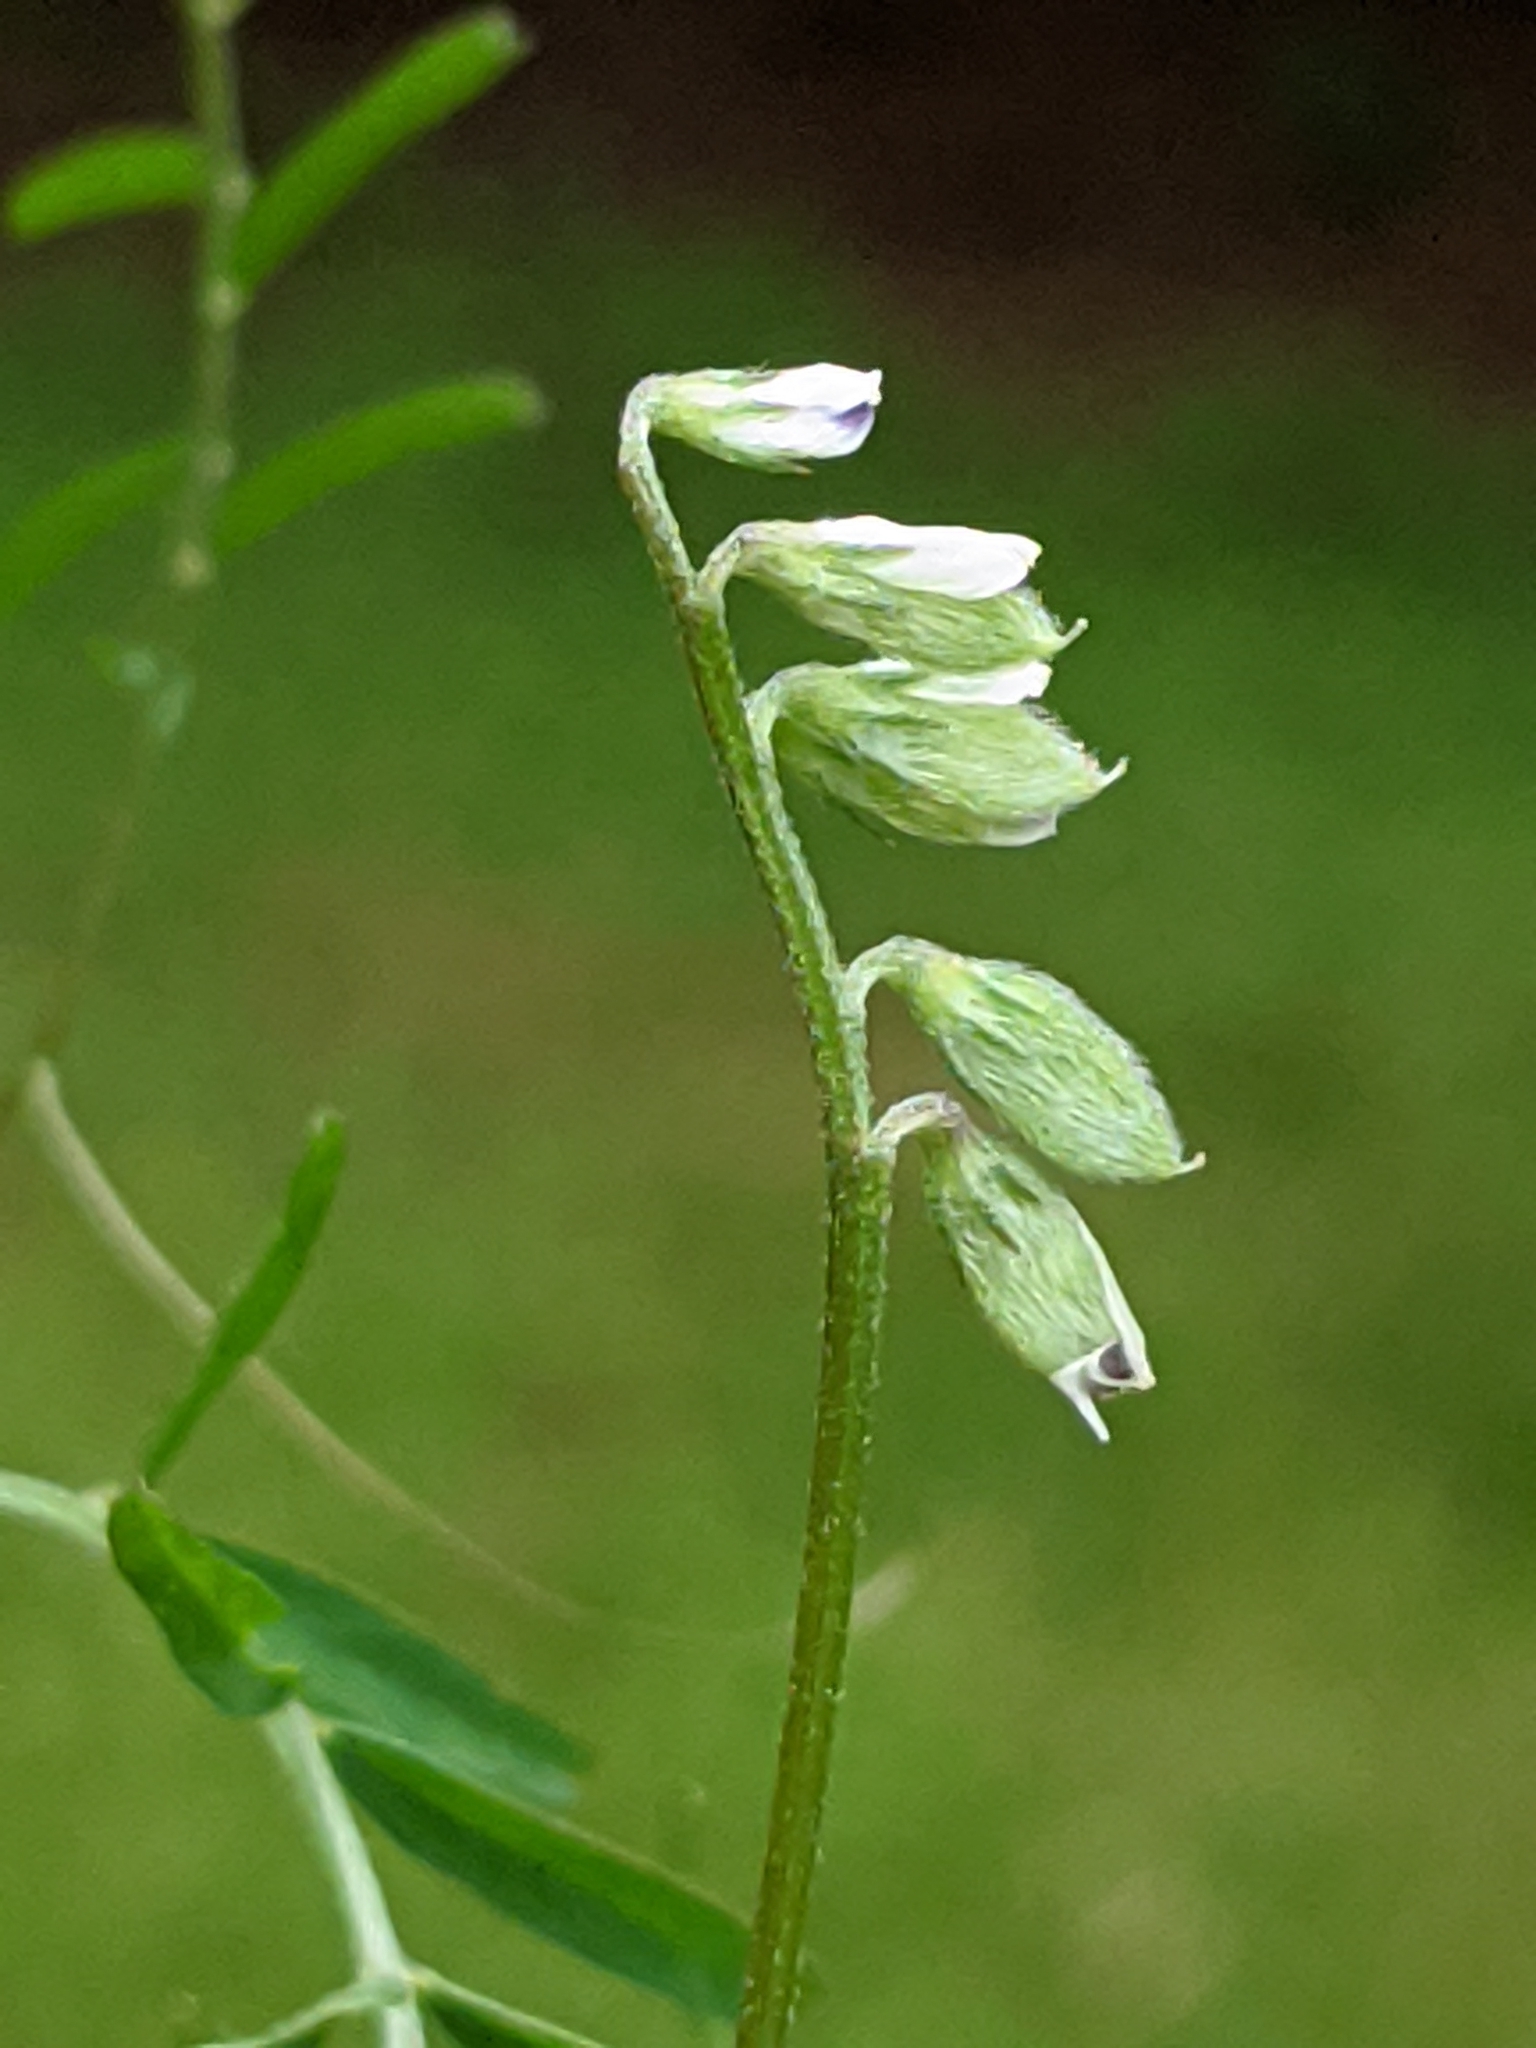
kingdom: Plantae
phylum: Tracheophyta
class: Magnoliopsida
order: Fabales
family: Fabaceae
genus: Vicia
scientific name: Vicia hirsuta
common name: Tiny vetch
